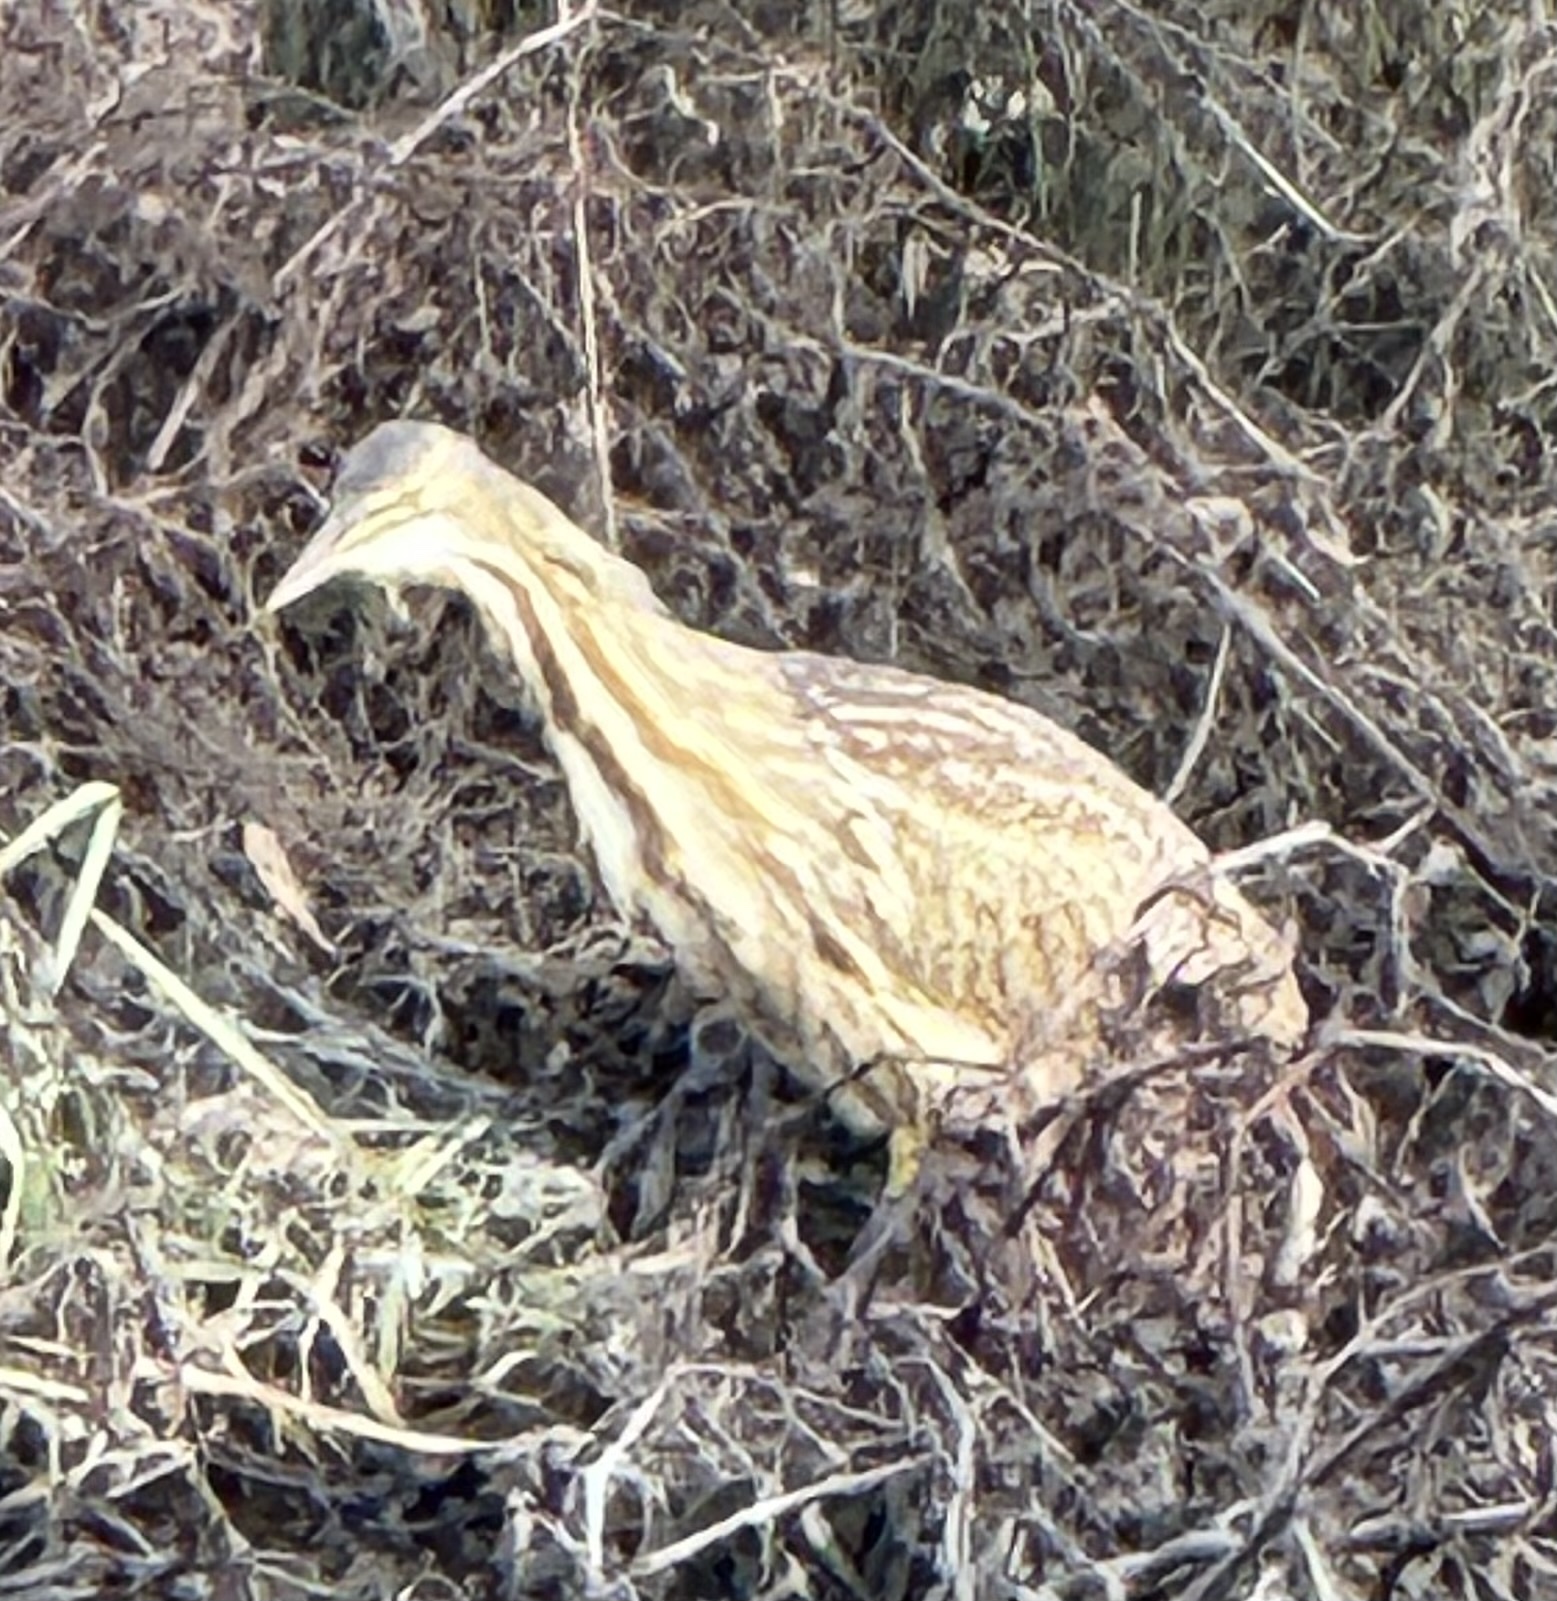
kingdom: Animalia
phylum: Chordata
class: Aves
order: Pelecaniformes
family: Ardeidae
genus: Botaurus
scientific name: Botaurus lentiginosus
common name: American bittern
